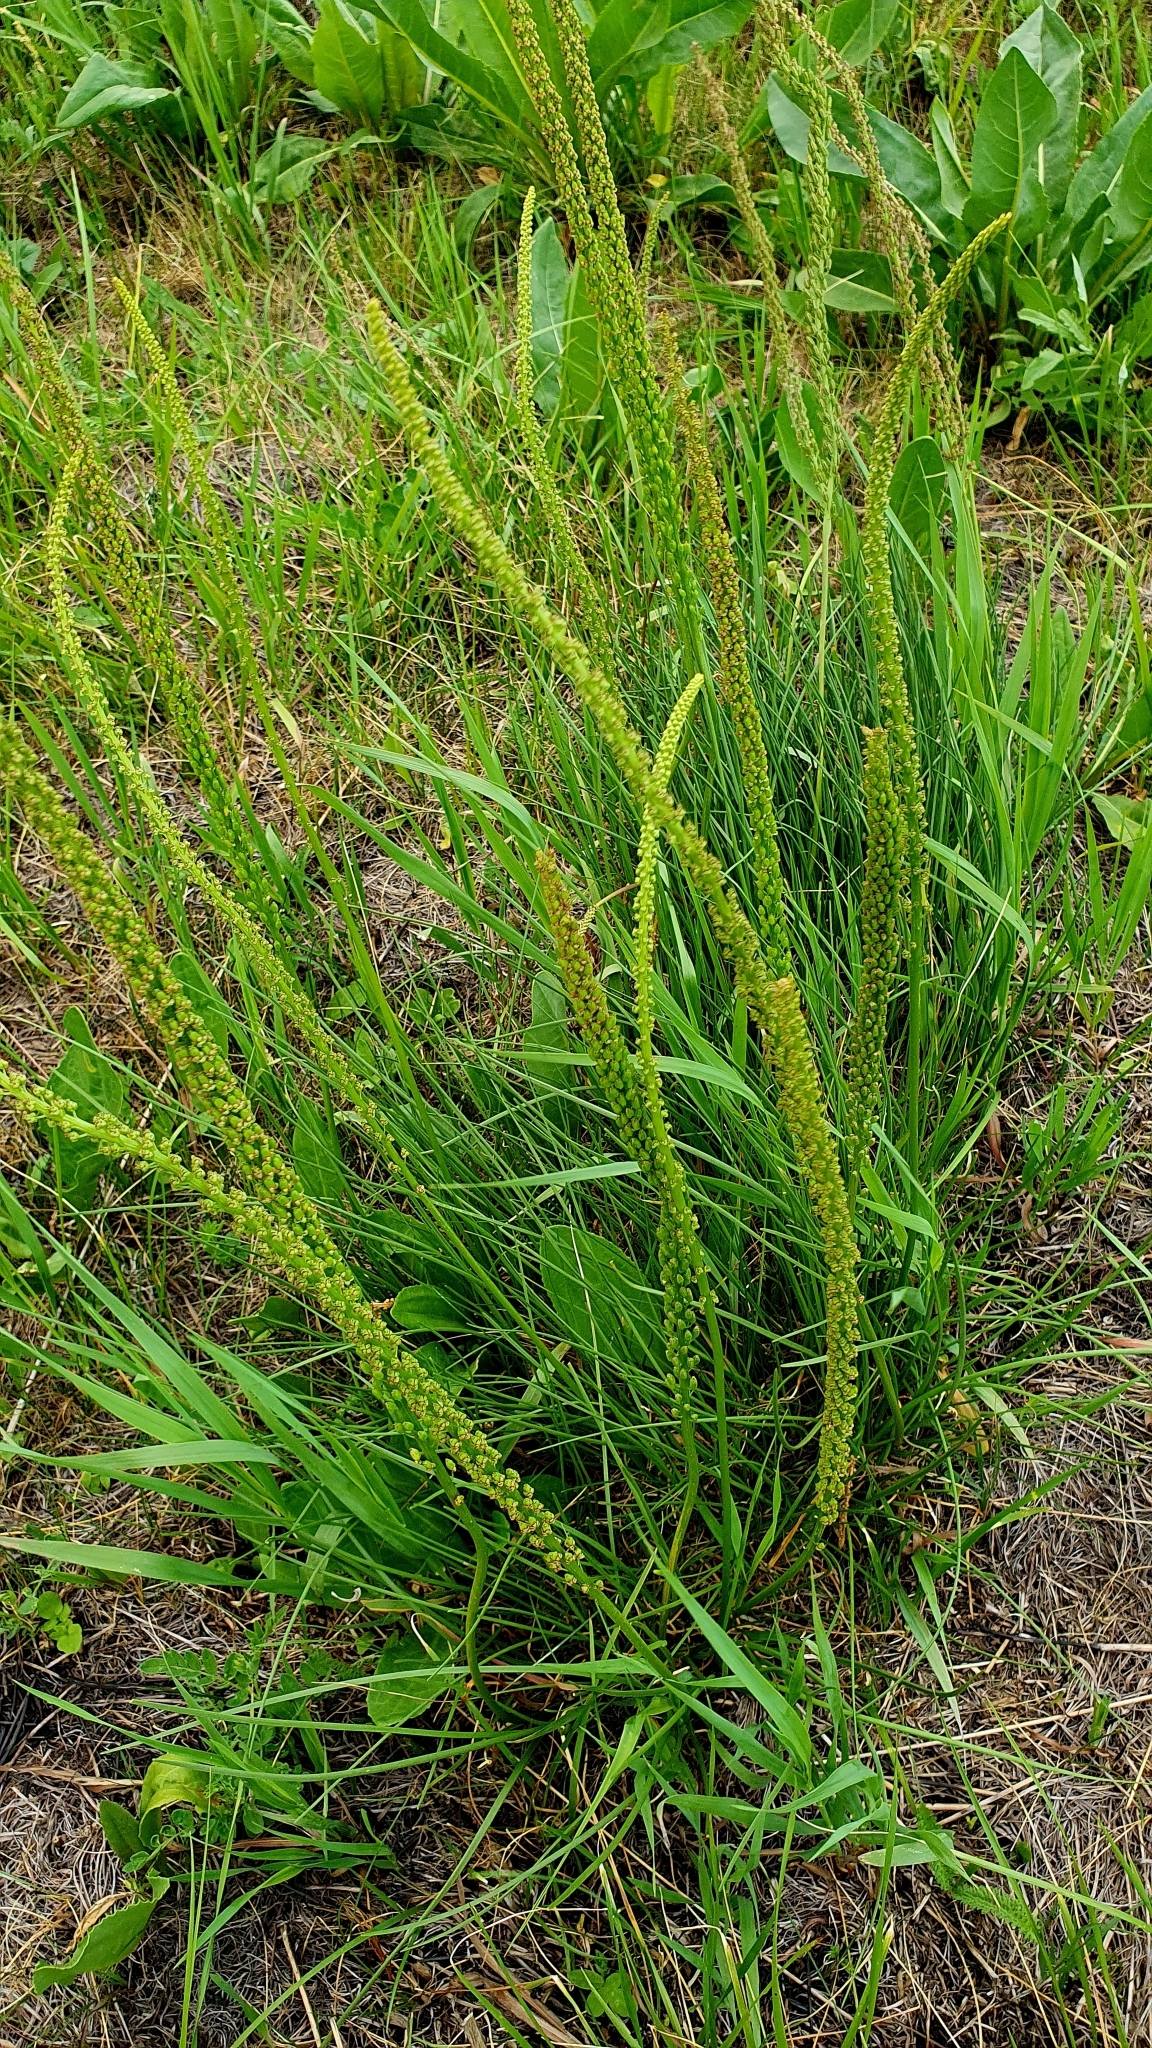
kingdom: Plantae
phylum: Tracheophyta
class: Liliopsida
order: Alismatales
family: Juncaginaceae
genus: Triglochin
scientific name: Triglochin maritima
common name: Sea arrowgrass
